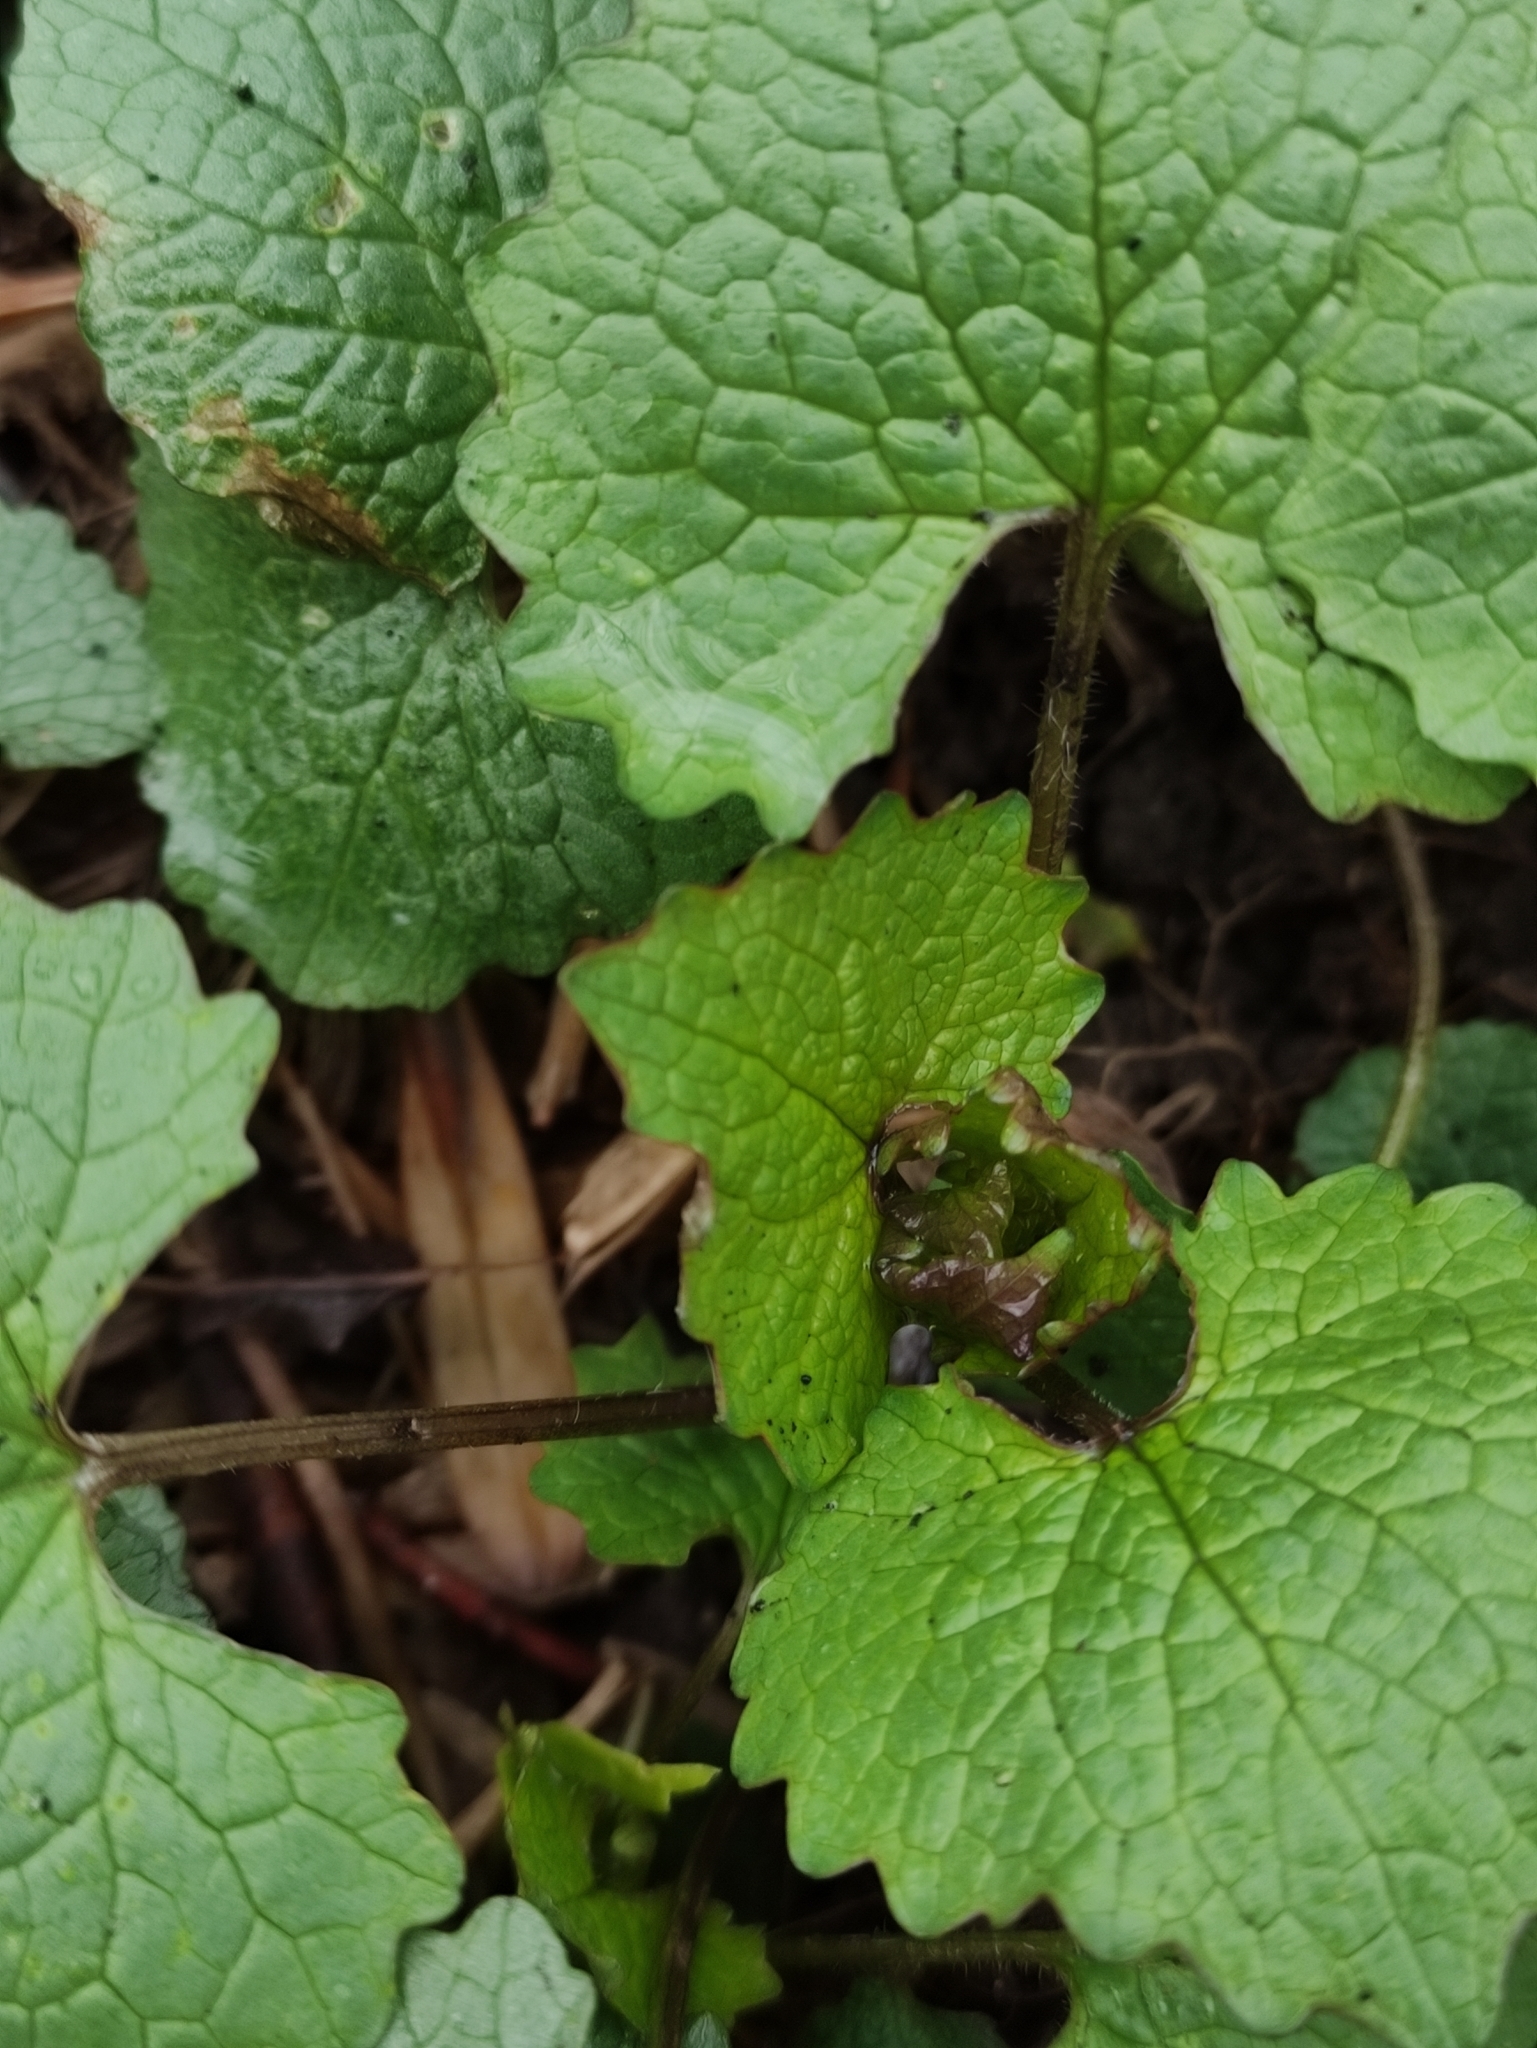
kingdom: Plantae
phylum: Tracheophyta
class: Magnoliopsida
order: Brassicales
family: Brassicaceae
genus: Alliaria
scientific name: Alliaria petiolata
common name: Garlic mustard
